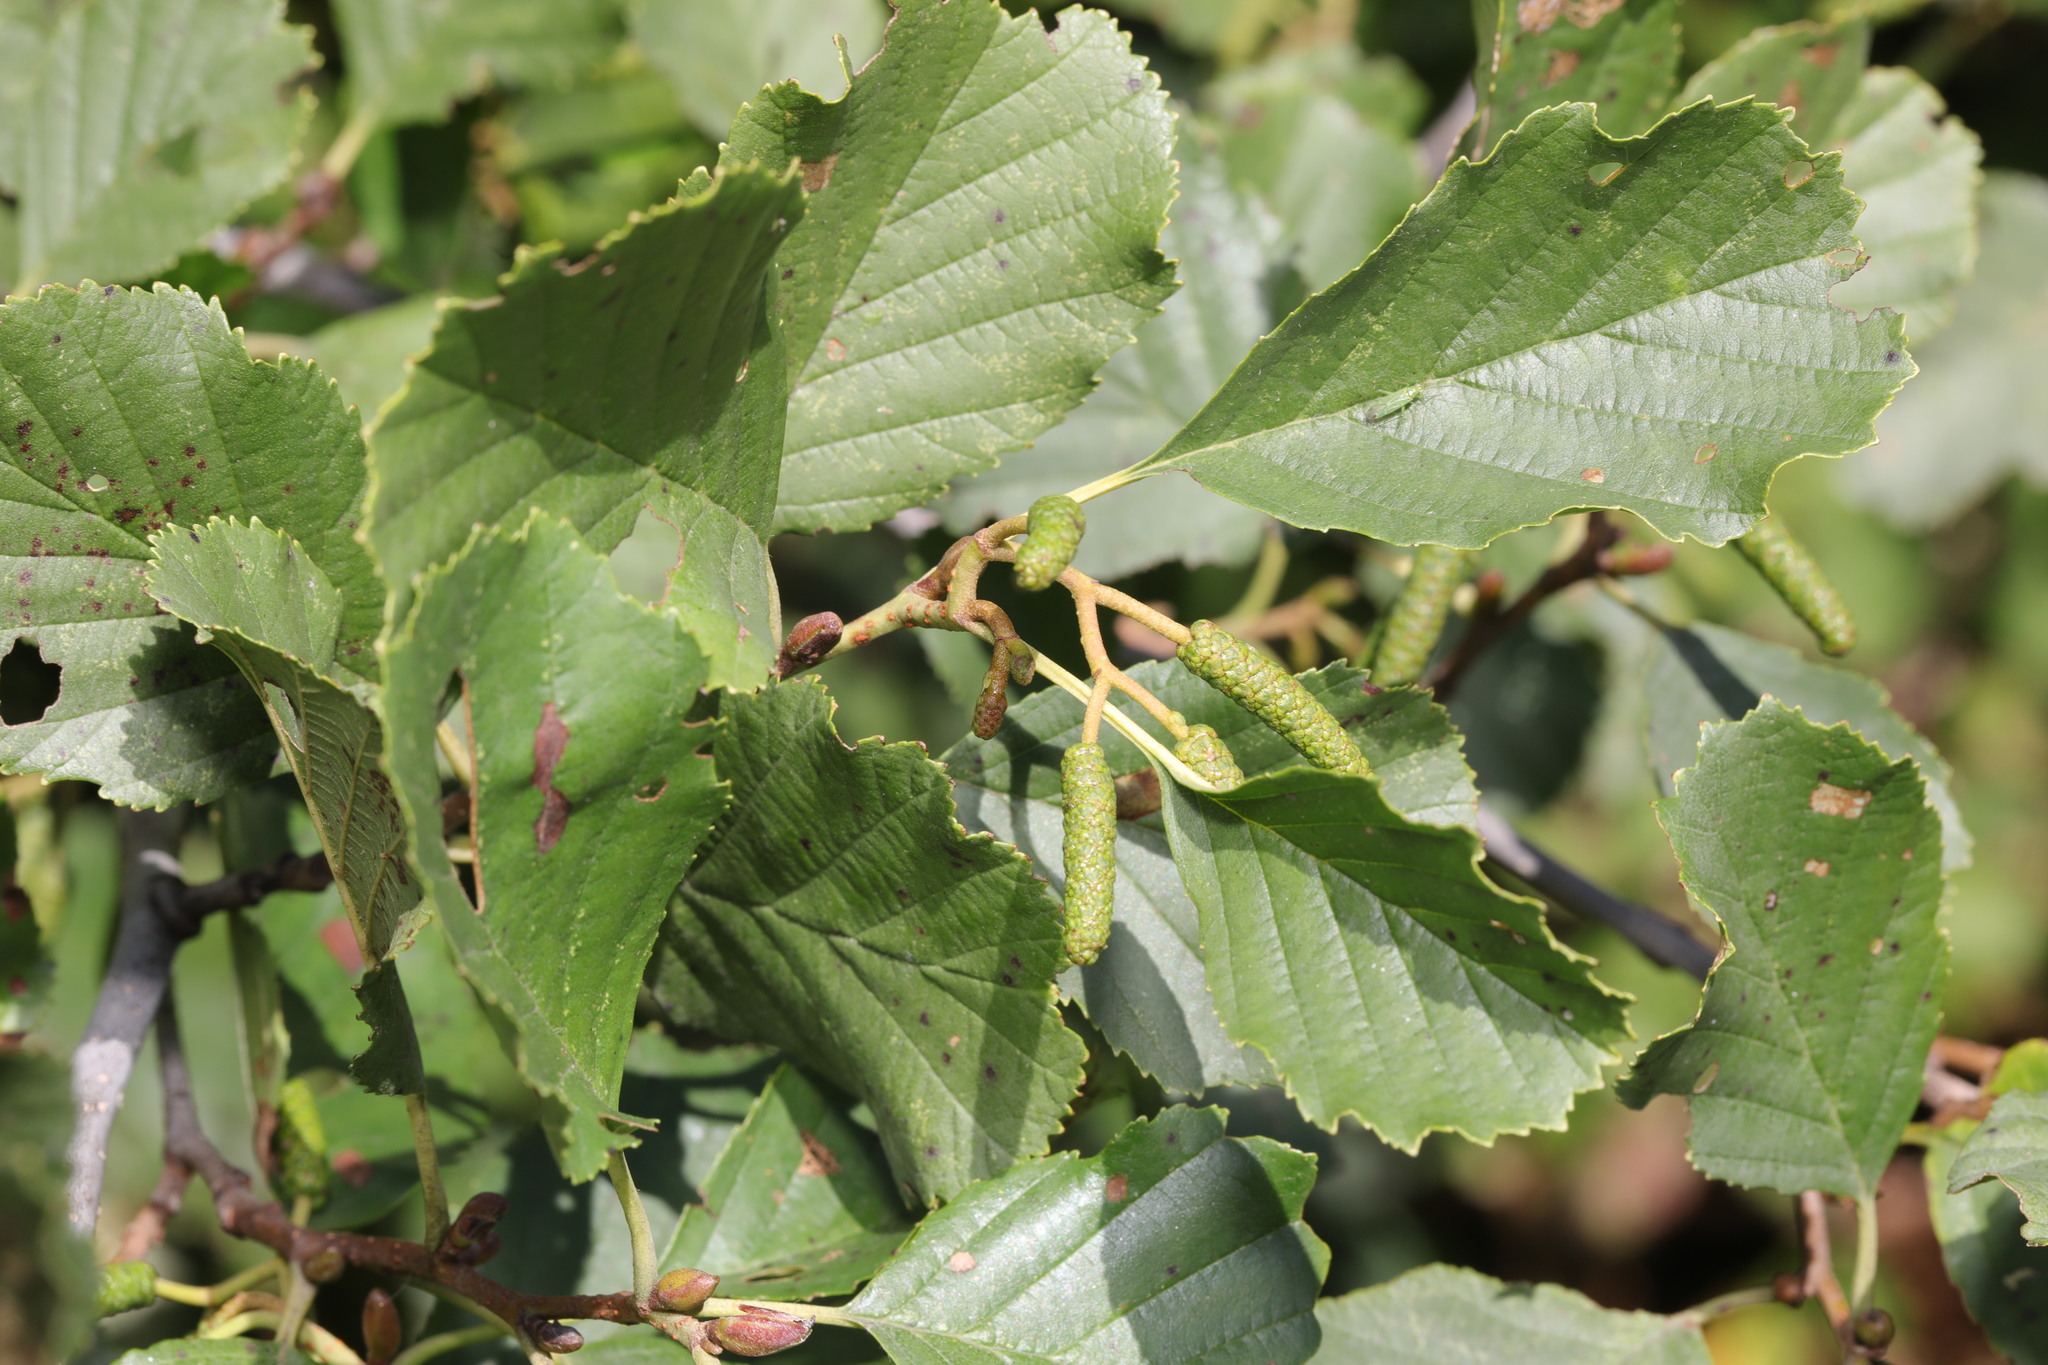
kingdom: Plantae
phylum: Tracheophyta
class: Magnoliopsida
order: Fagales
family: Betulaceae
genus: Alnus
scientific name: Alnus glutinosa
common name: Black alder
